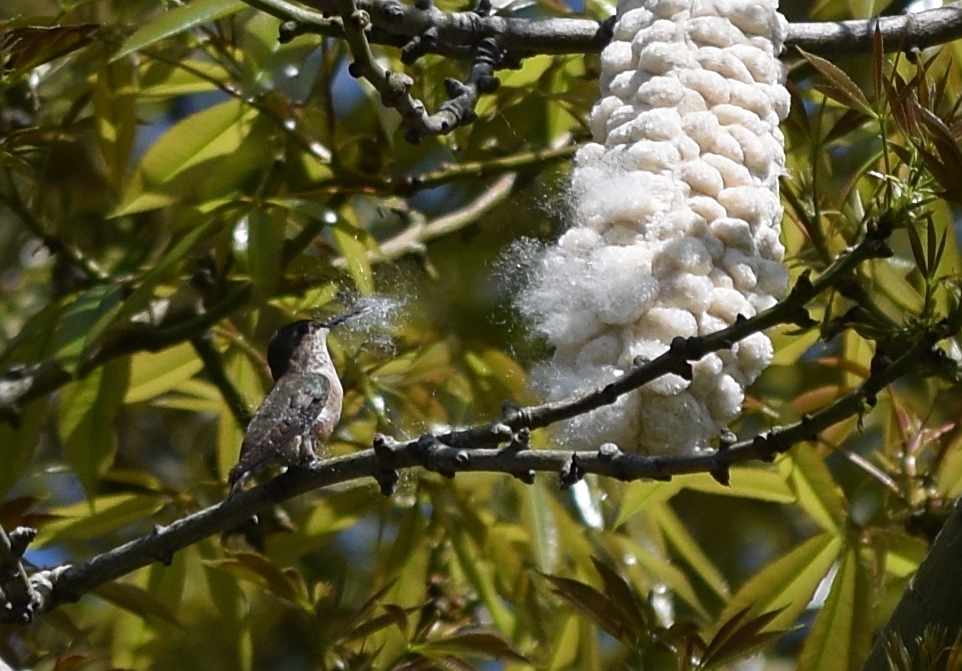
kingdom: Animalia
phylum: Chordata
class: Aves
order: Apodiformes
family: Trochilidae
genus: Selasphorus
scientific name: Selasphorus sasin
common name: Allen's hummingbird
